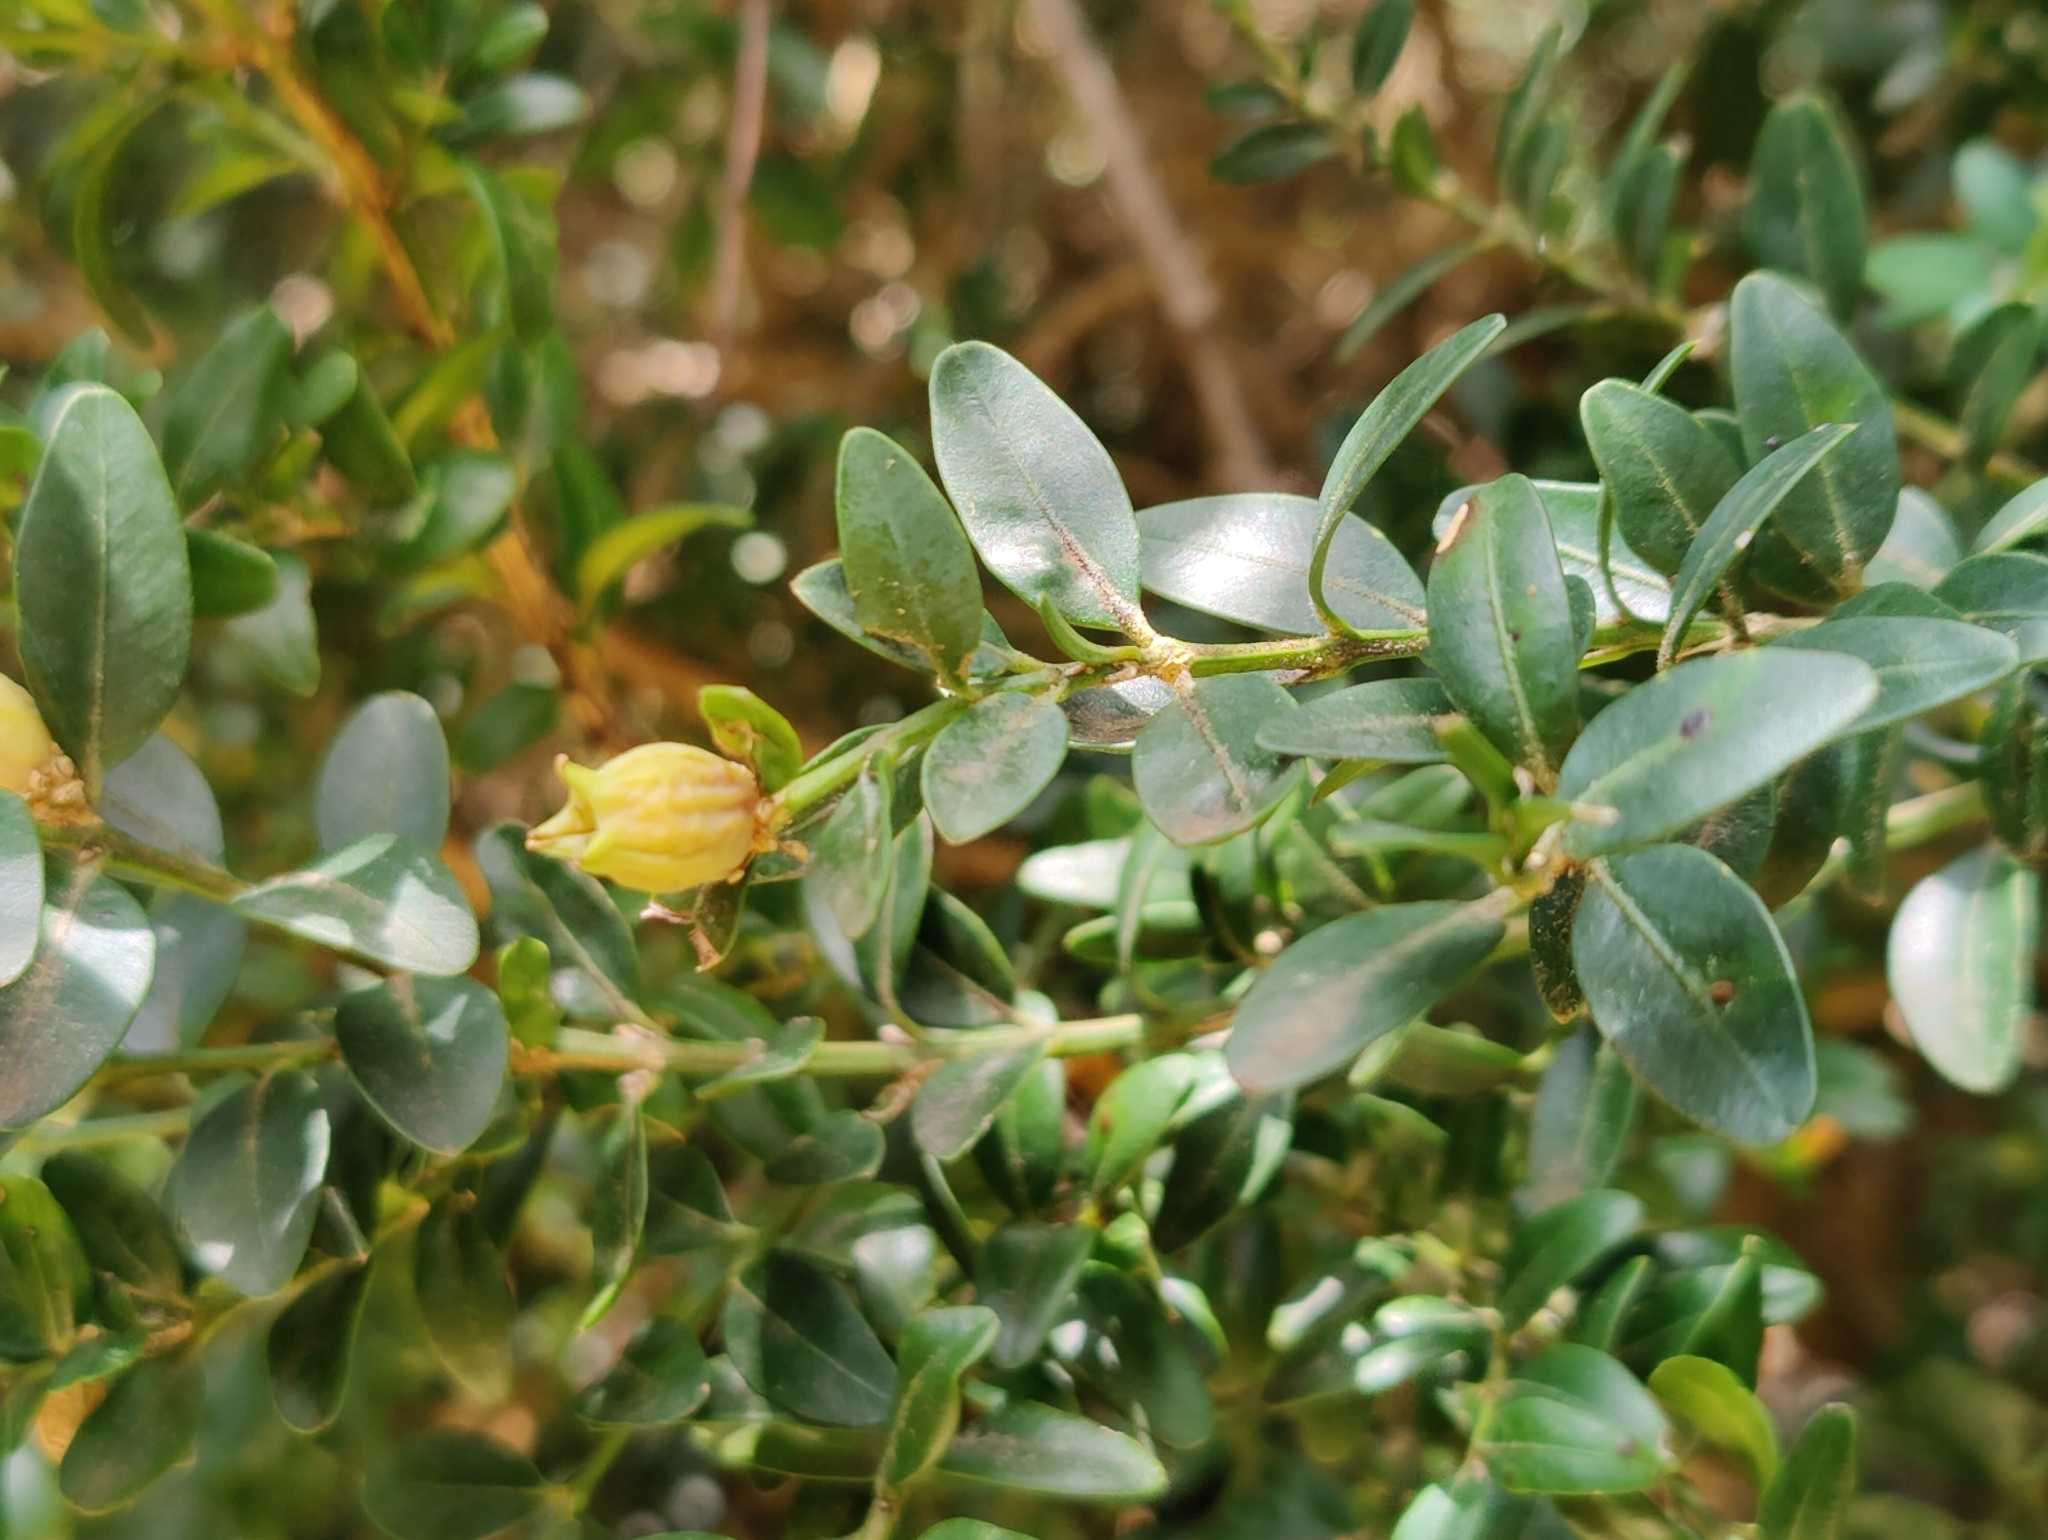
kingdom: Plantae
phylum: Tracheophyta
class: Magnoliopsida
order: Buxales
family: Buxaceae
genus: Buxus
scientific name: Buxus sempervirens
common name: Box
